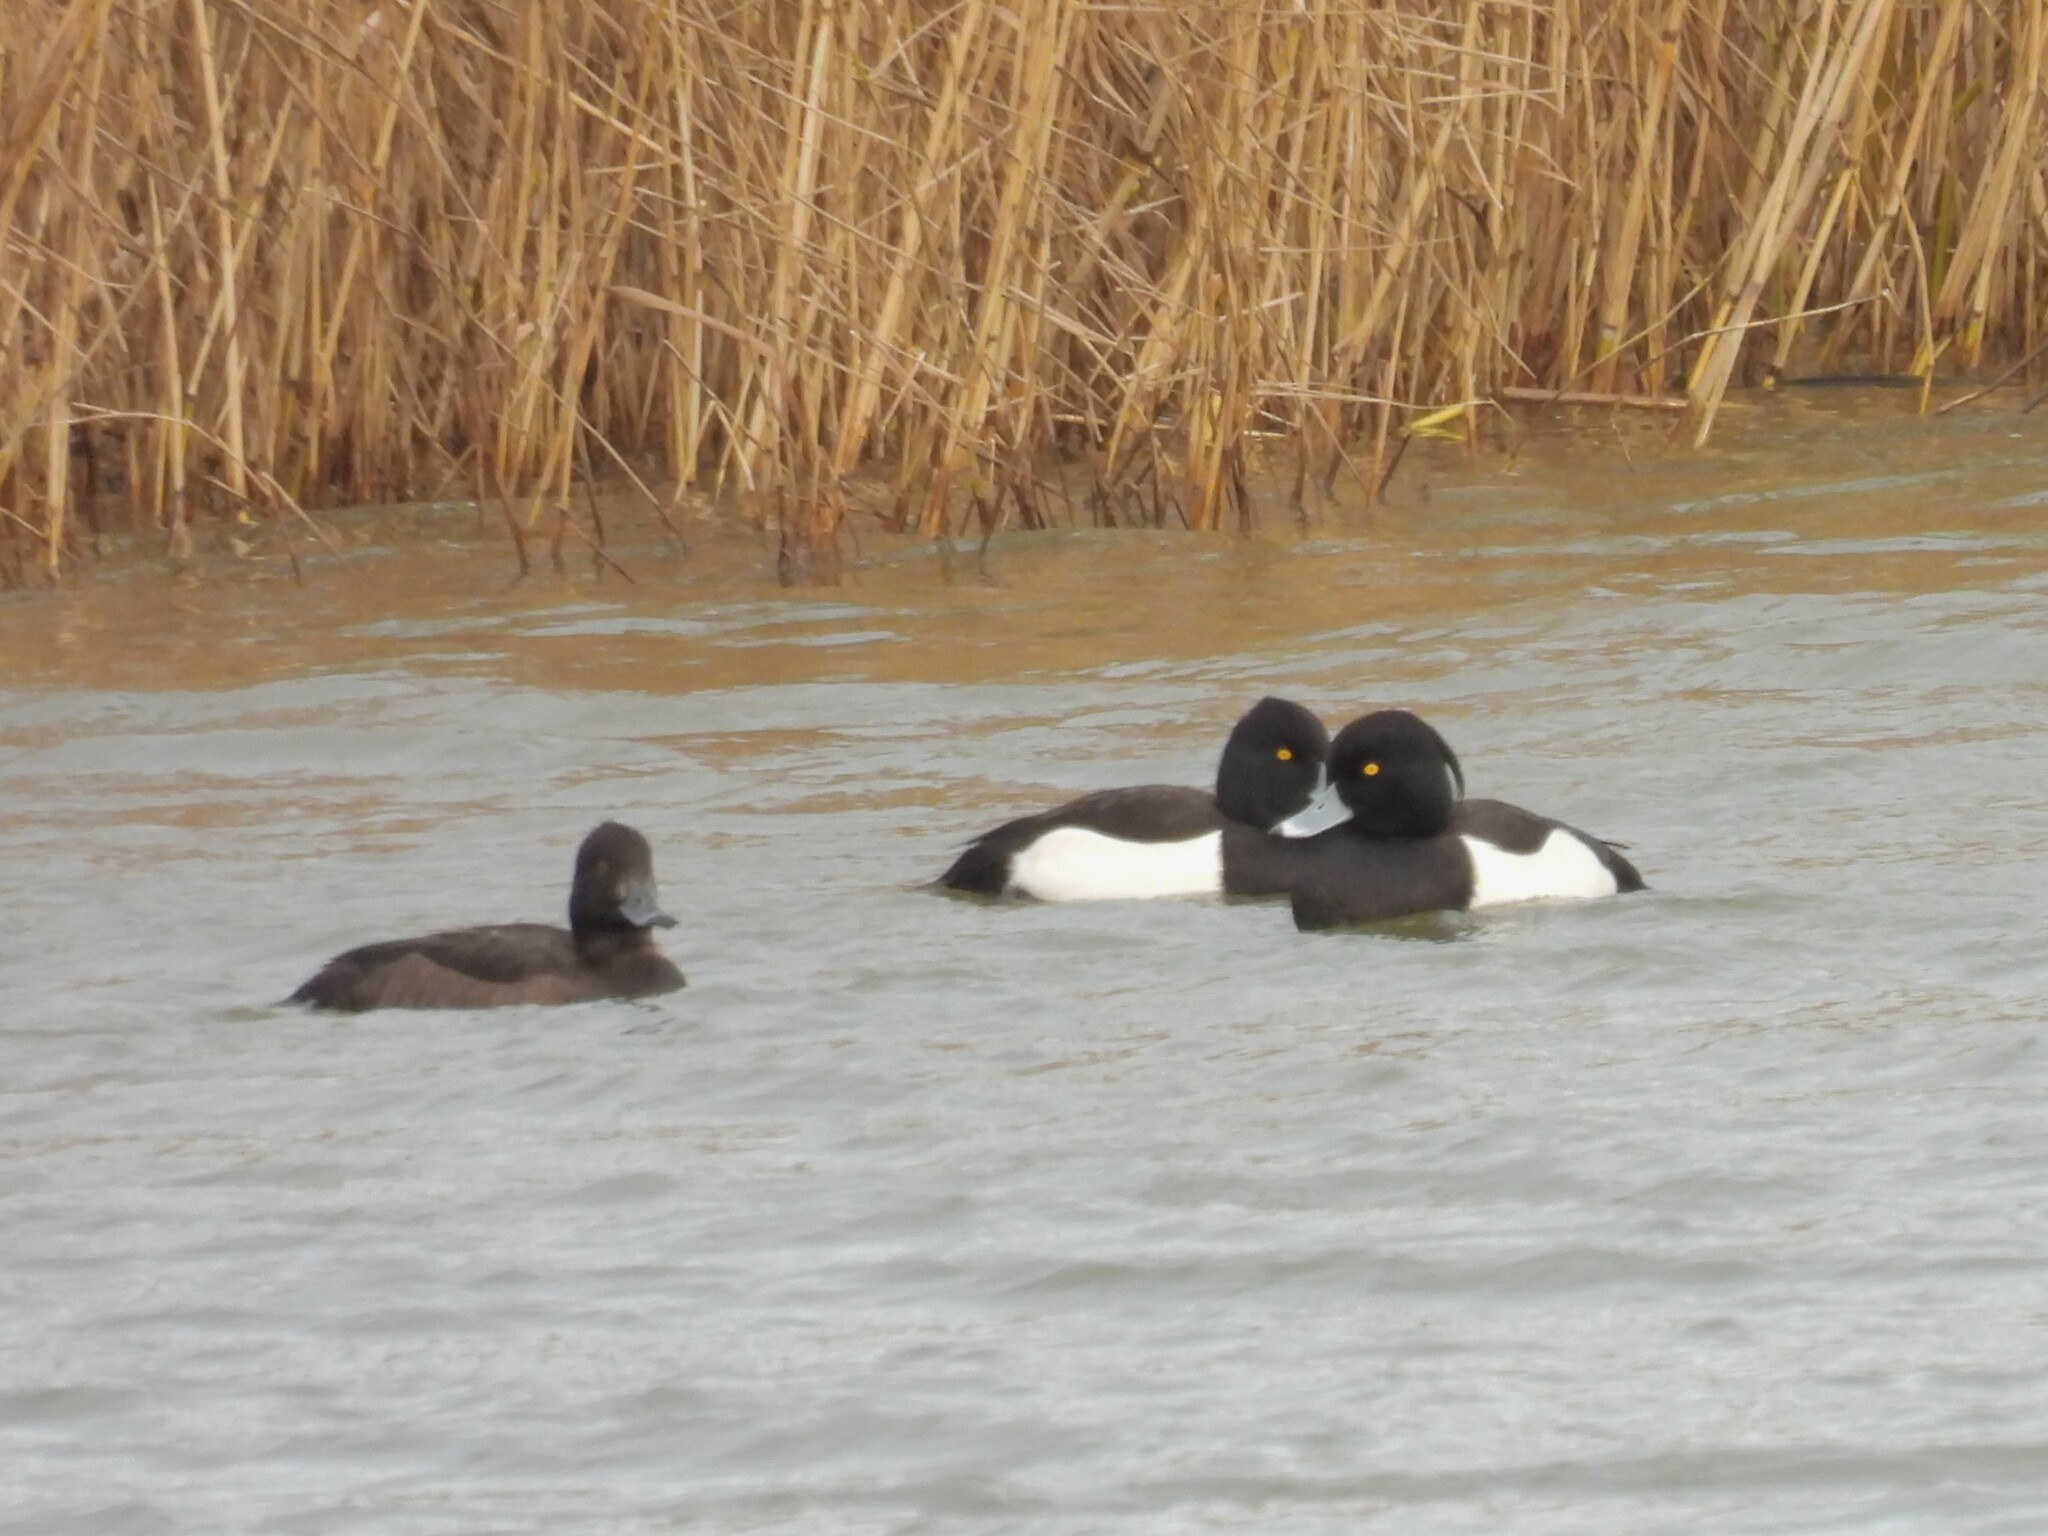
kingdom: Animalia
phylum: Chordata
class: Aves
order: Anseriformes
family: Anatidae
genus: Aythya
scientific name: Aythya fuligula
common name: Tufted duck
